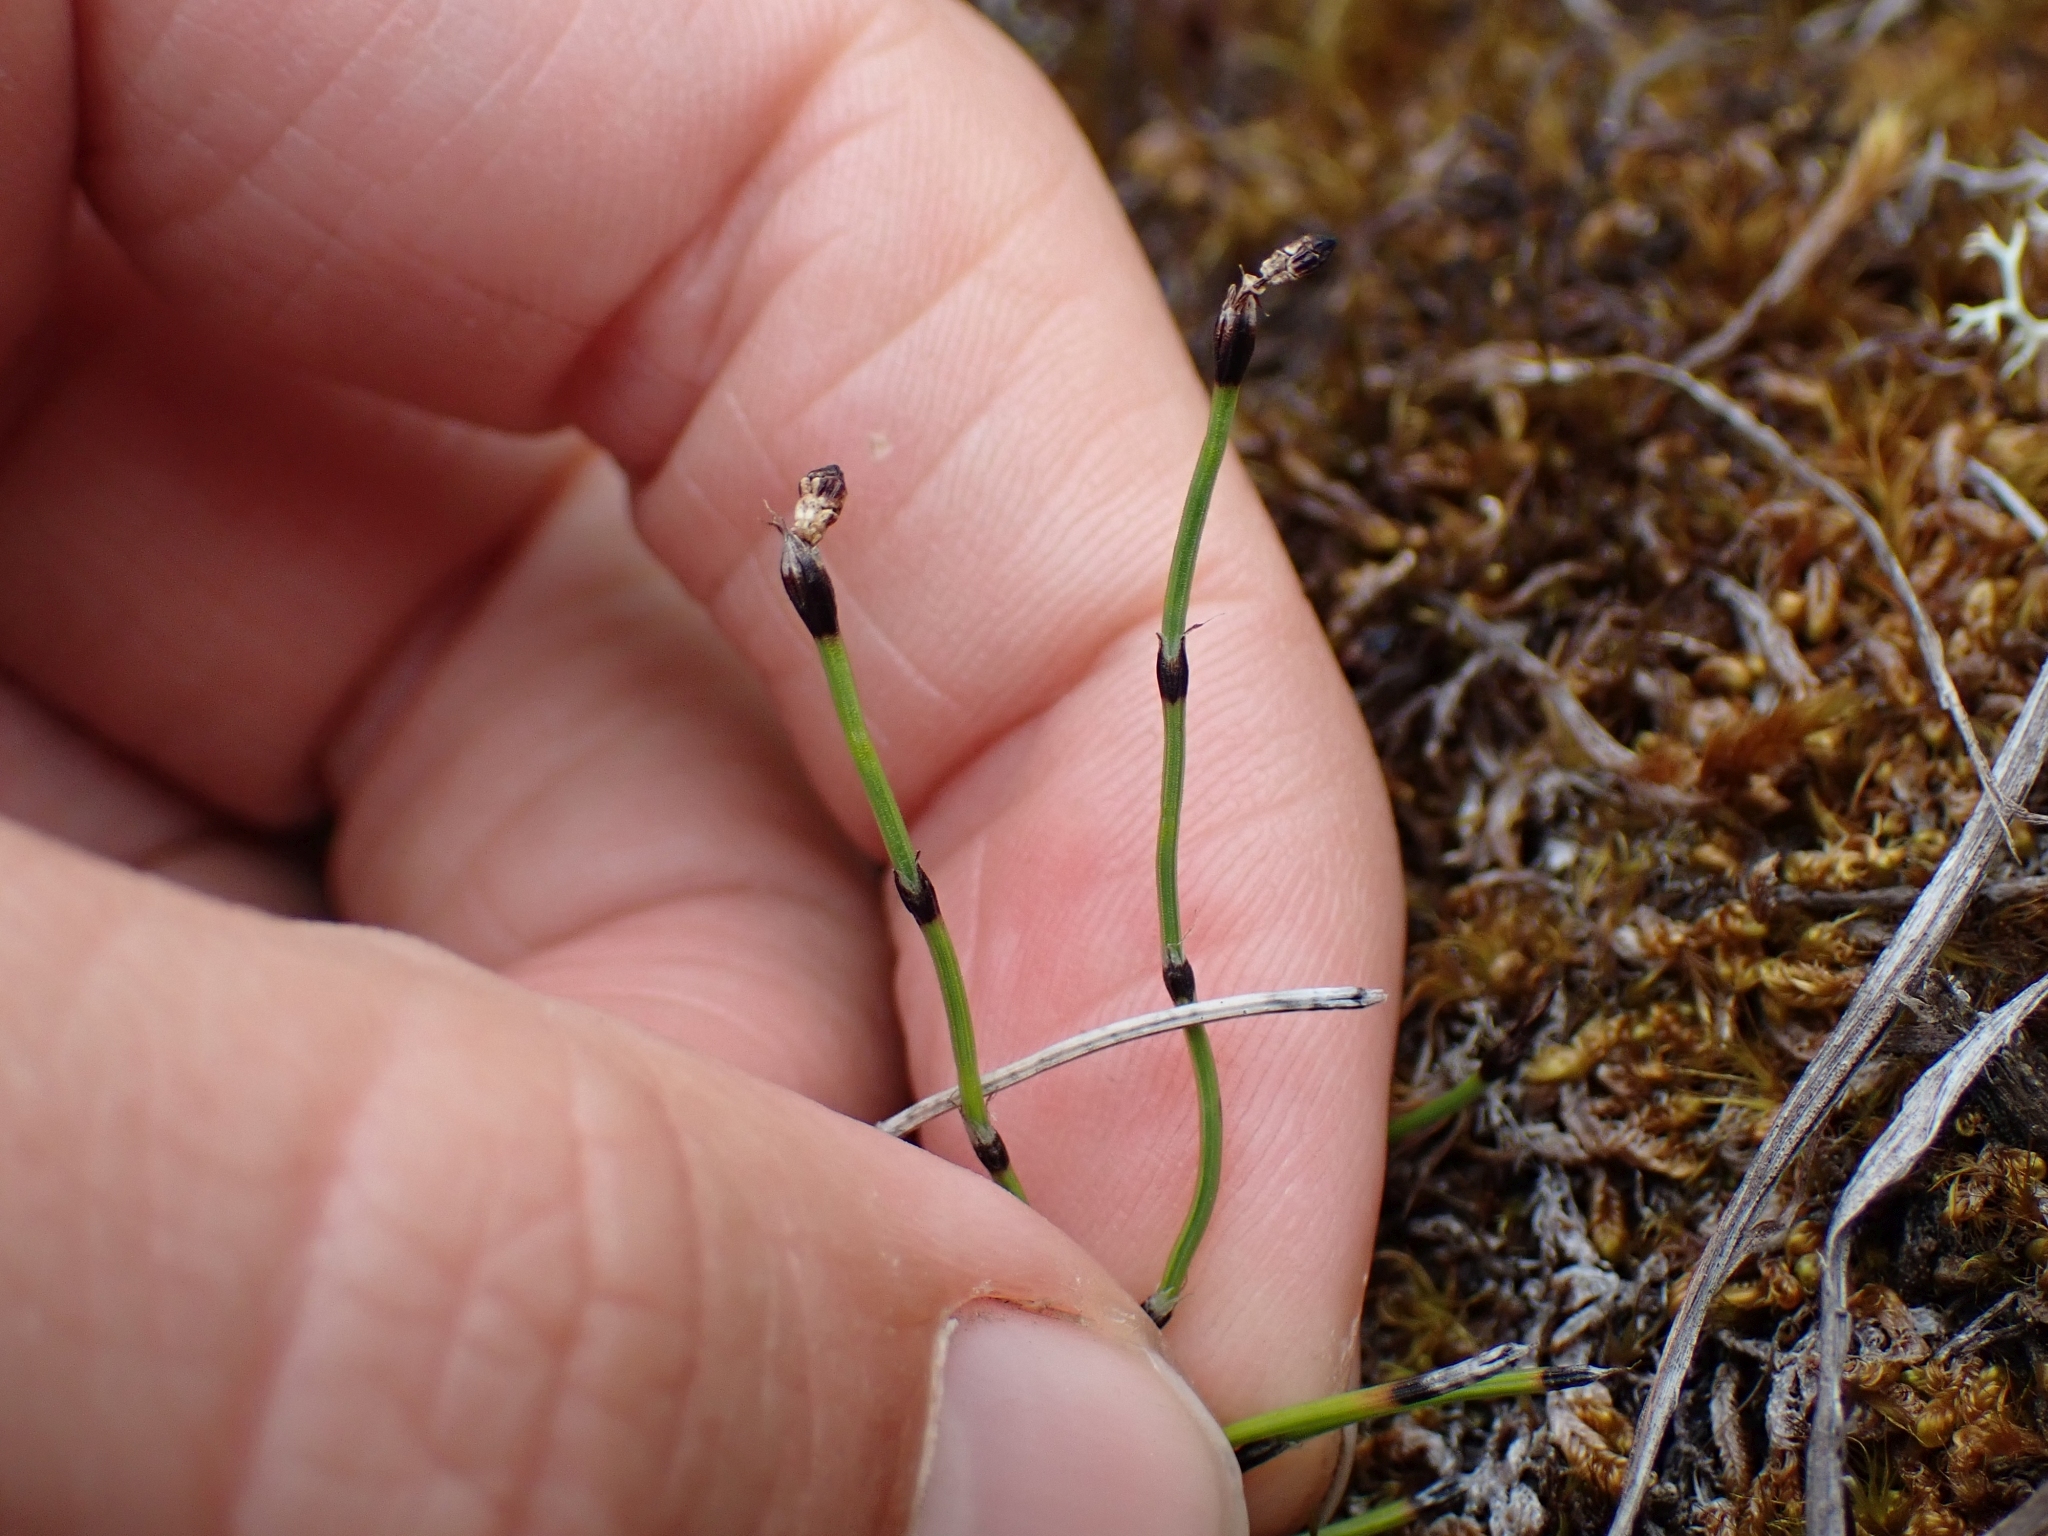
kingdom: Plantae
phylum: Tracheophyta
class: Polypodiopsida
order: Equisetales
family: Equisetaceae
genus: Equisetum
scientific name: Equisetum scirpoides
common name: Delicate horsetail
